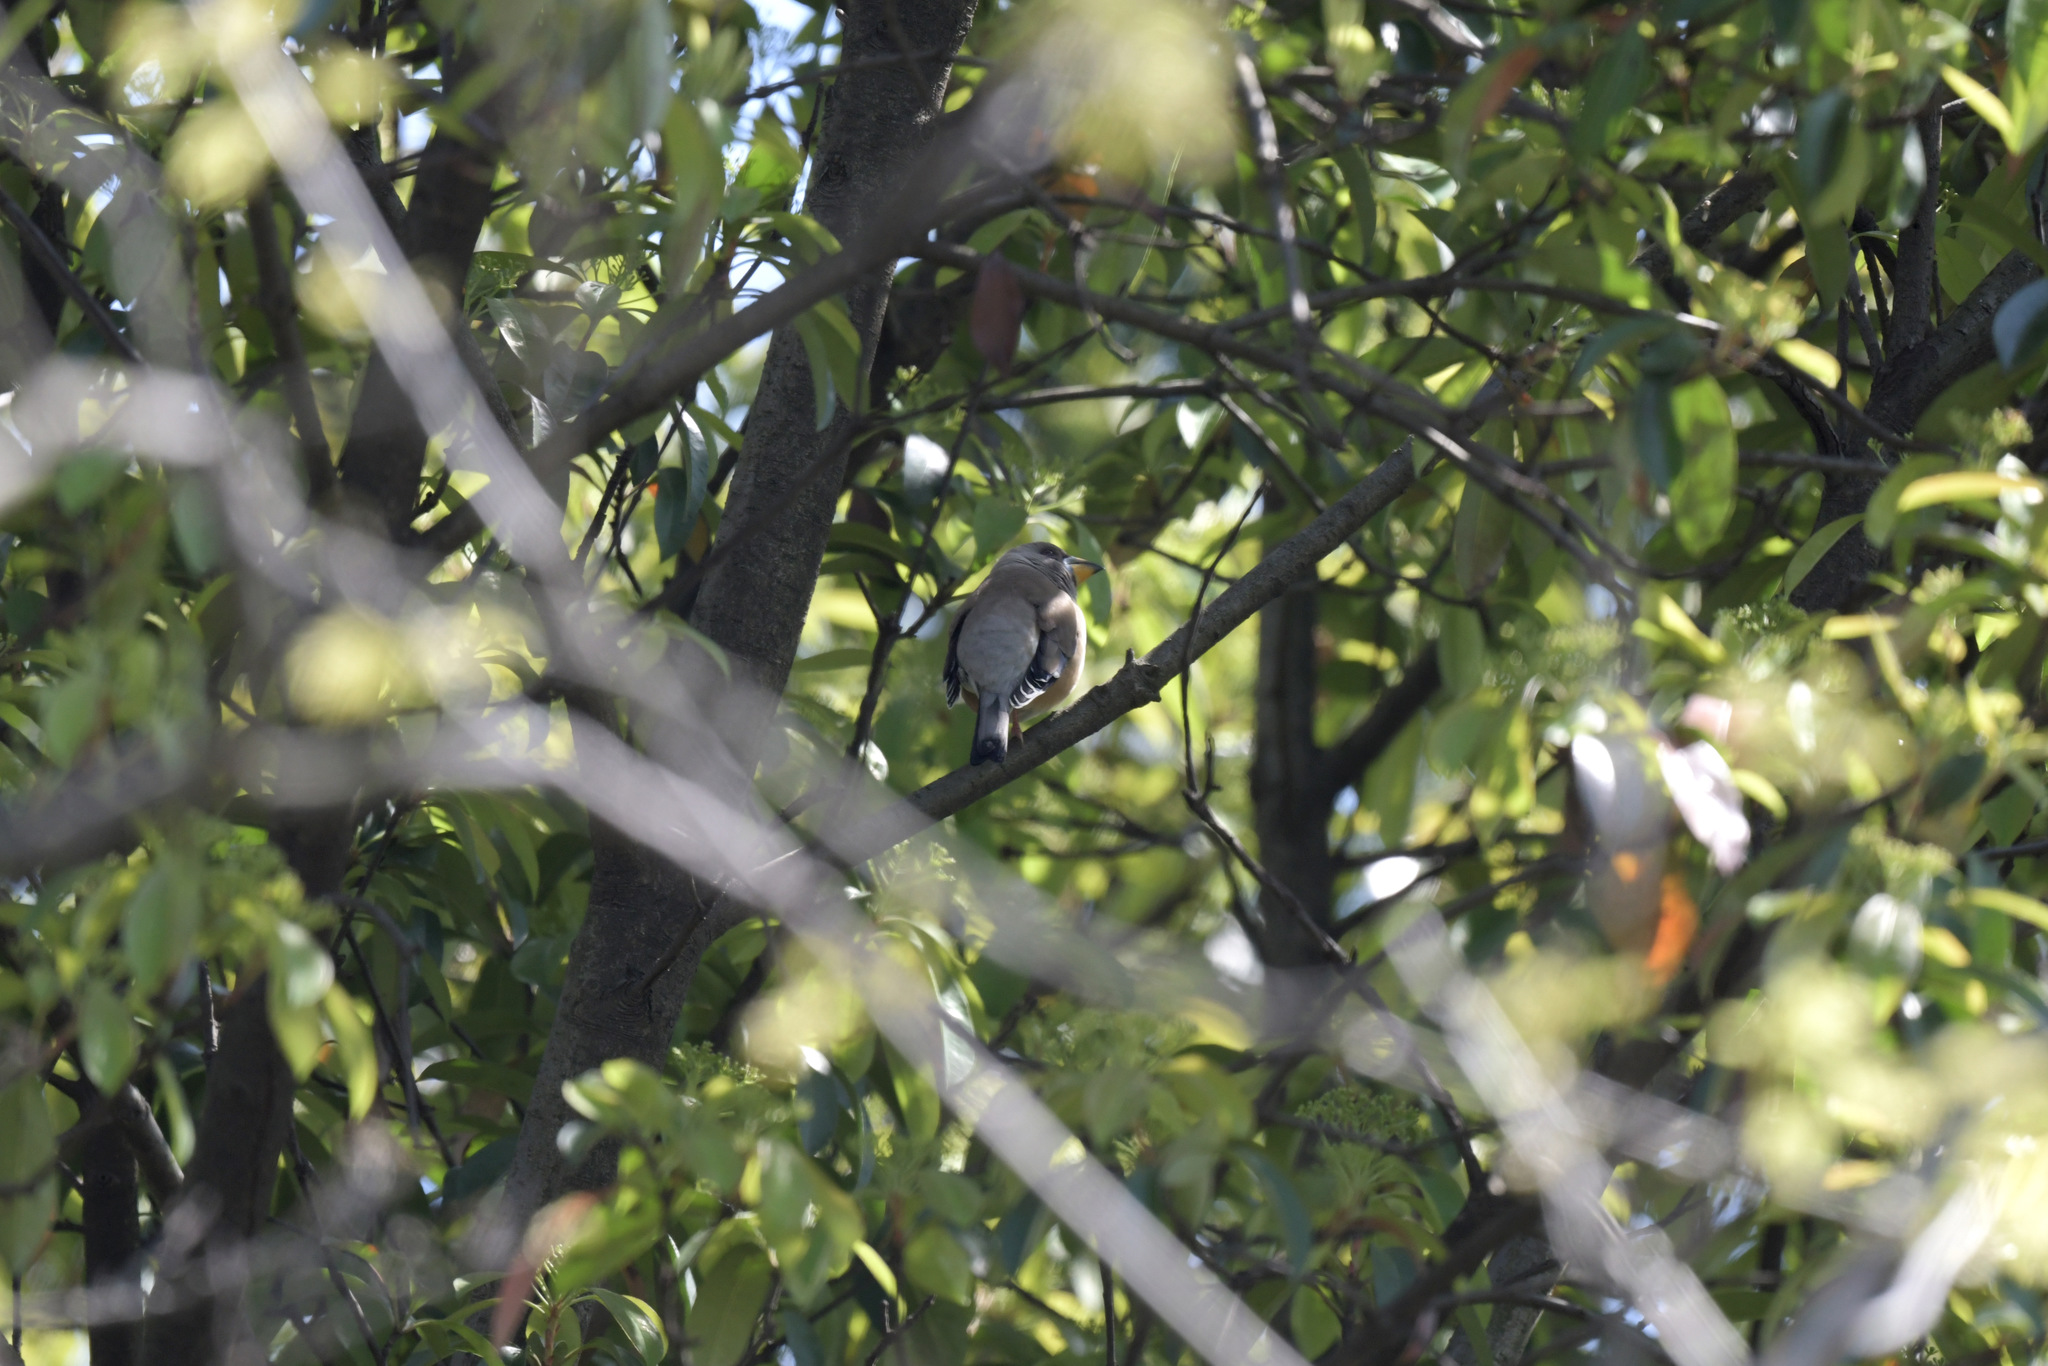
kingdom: Animalia
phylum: Chordata
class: Aves
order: Passeriformes
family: Fringillidae
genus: Eophona
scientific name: Eophona migratoria
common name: Yellow-billed grosbeak
